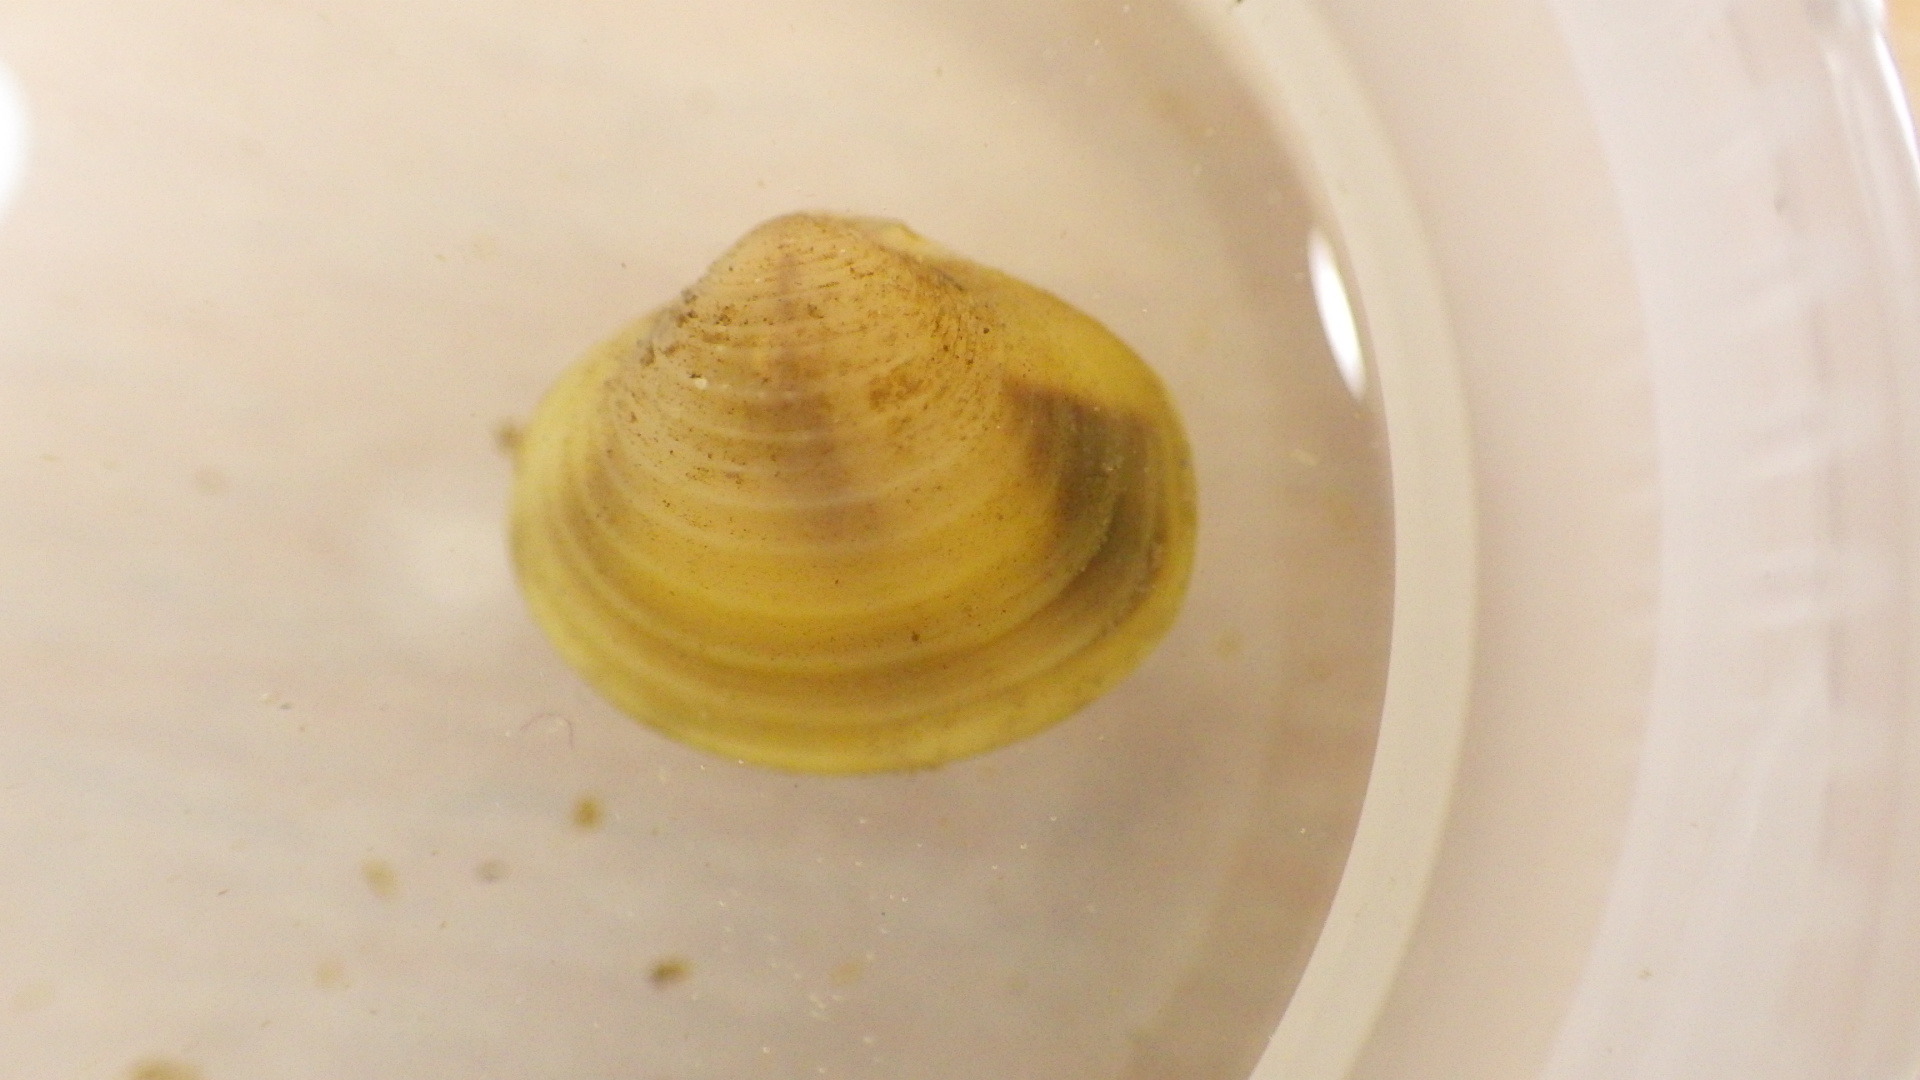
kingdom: Animalia
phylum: Mollusca
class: Bivalvia
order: Venerida
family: Cyrenidae
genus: Corbicula
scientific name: Corbicula fluminea
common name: Asian clam
